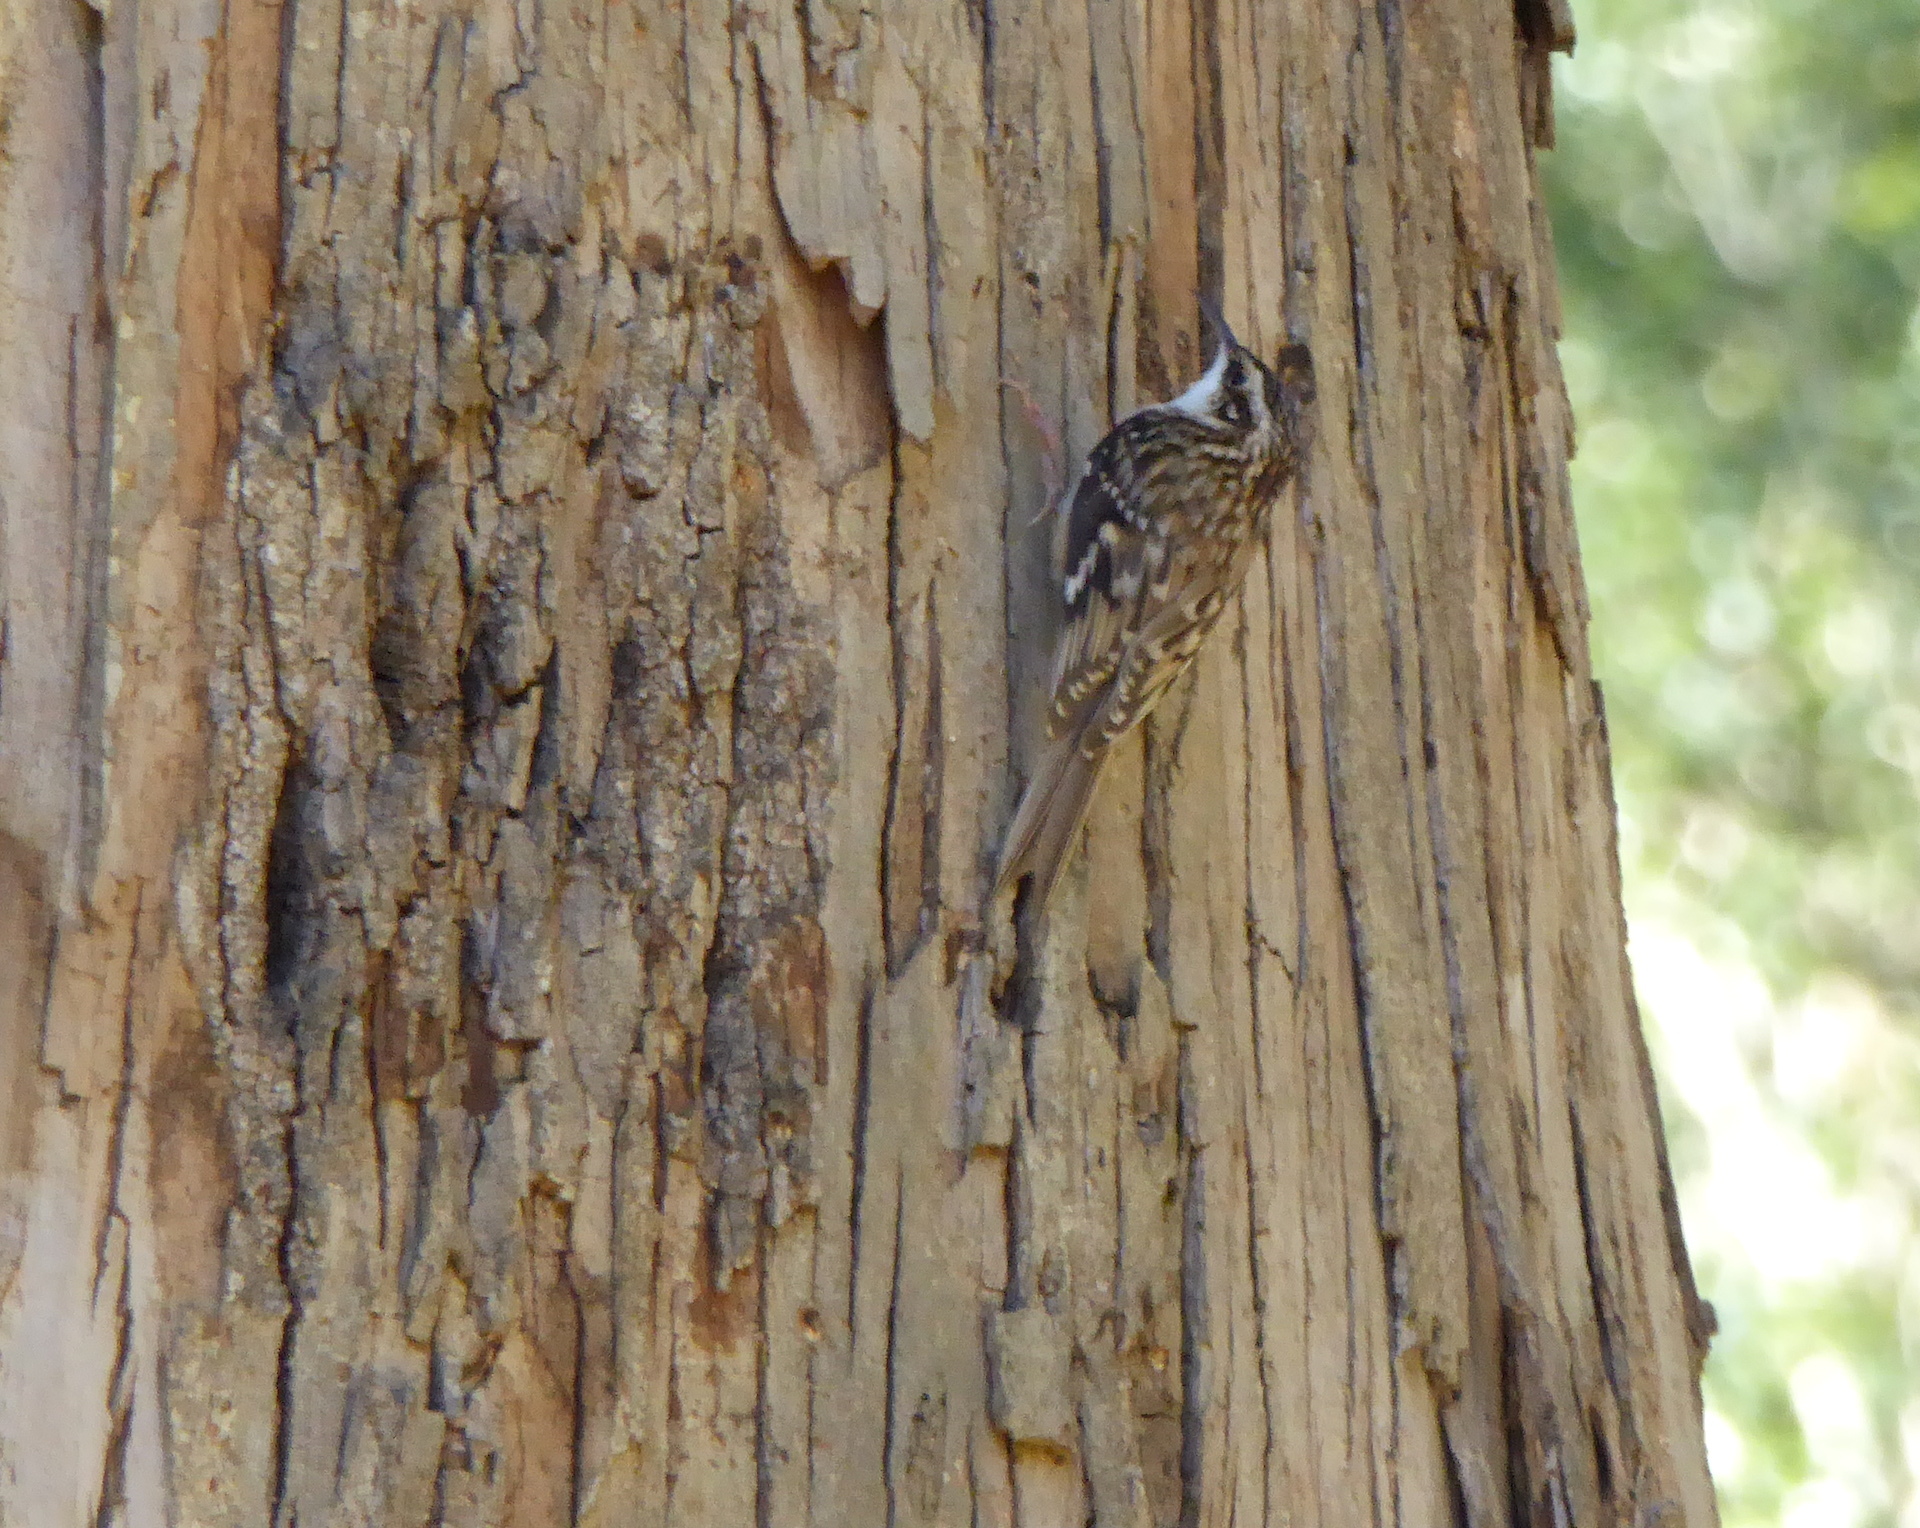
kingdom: Animalia
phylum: Chordata
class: Aves
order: Passeriformes
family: Certhiidae
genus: Certhia
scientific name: Certhia americana
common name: Brown creeper
